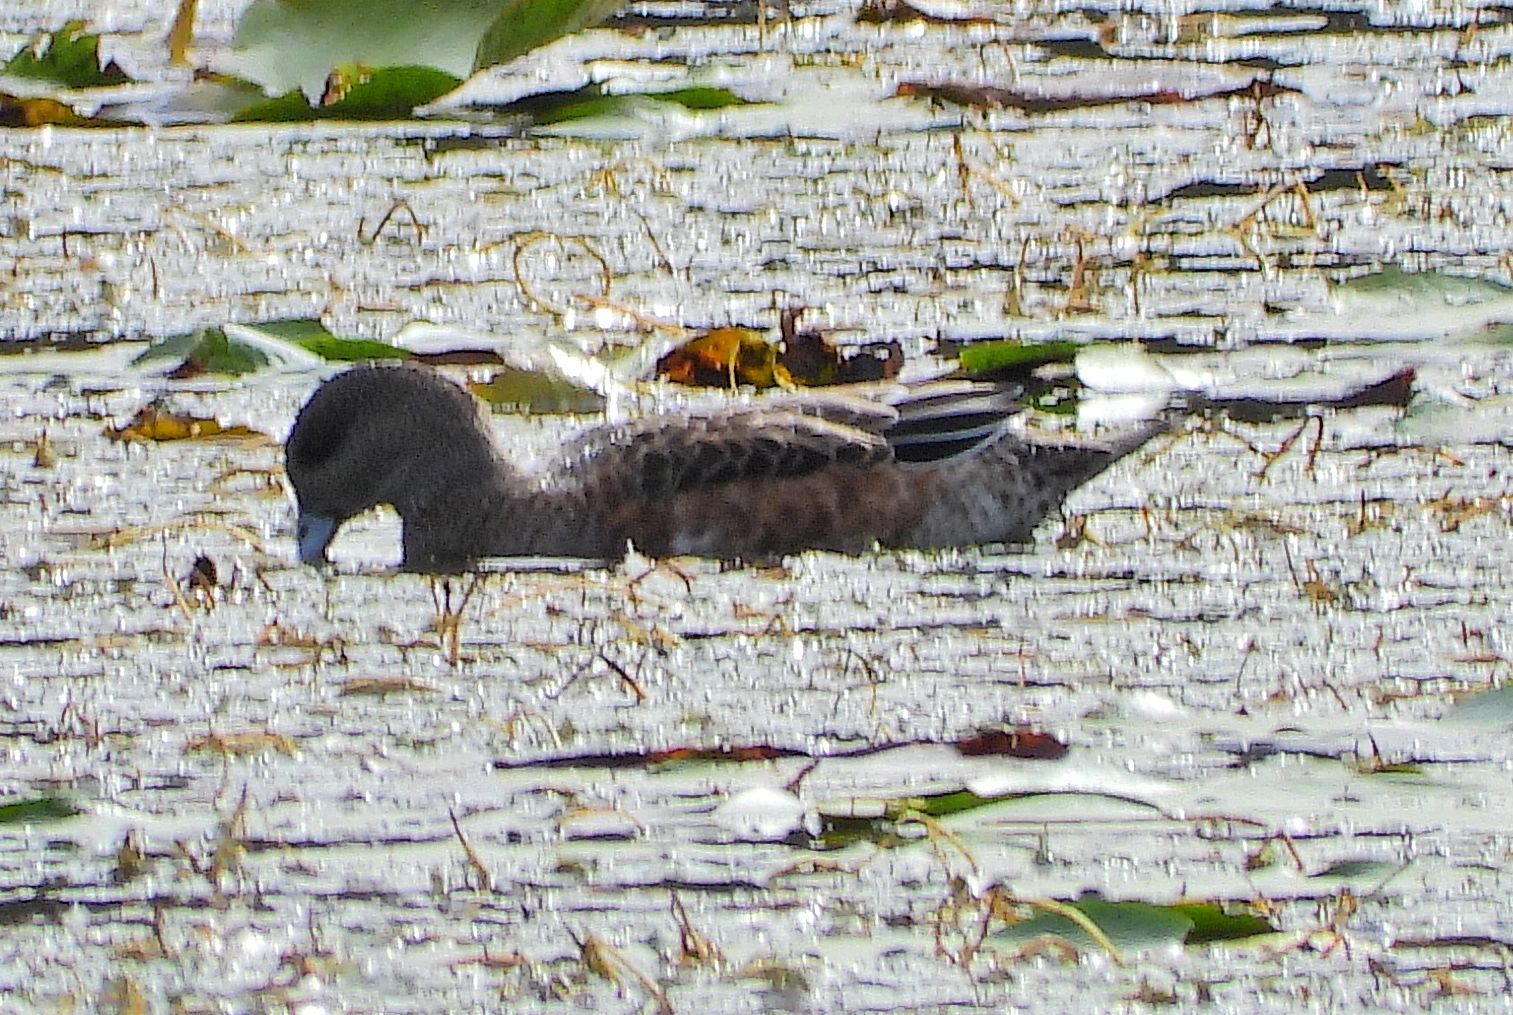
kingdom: Animalia
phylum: Chordata
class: Aves
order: Anseriformes
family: Anatidae
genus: Mareca
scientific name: Mareca americana
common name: American wigeon
